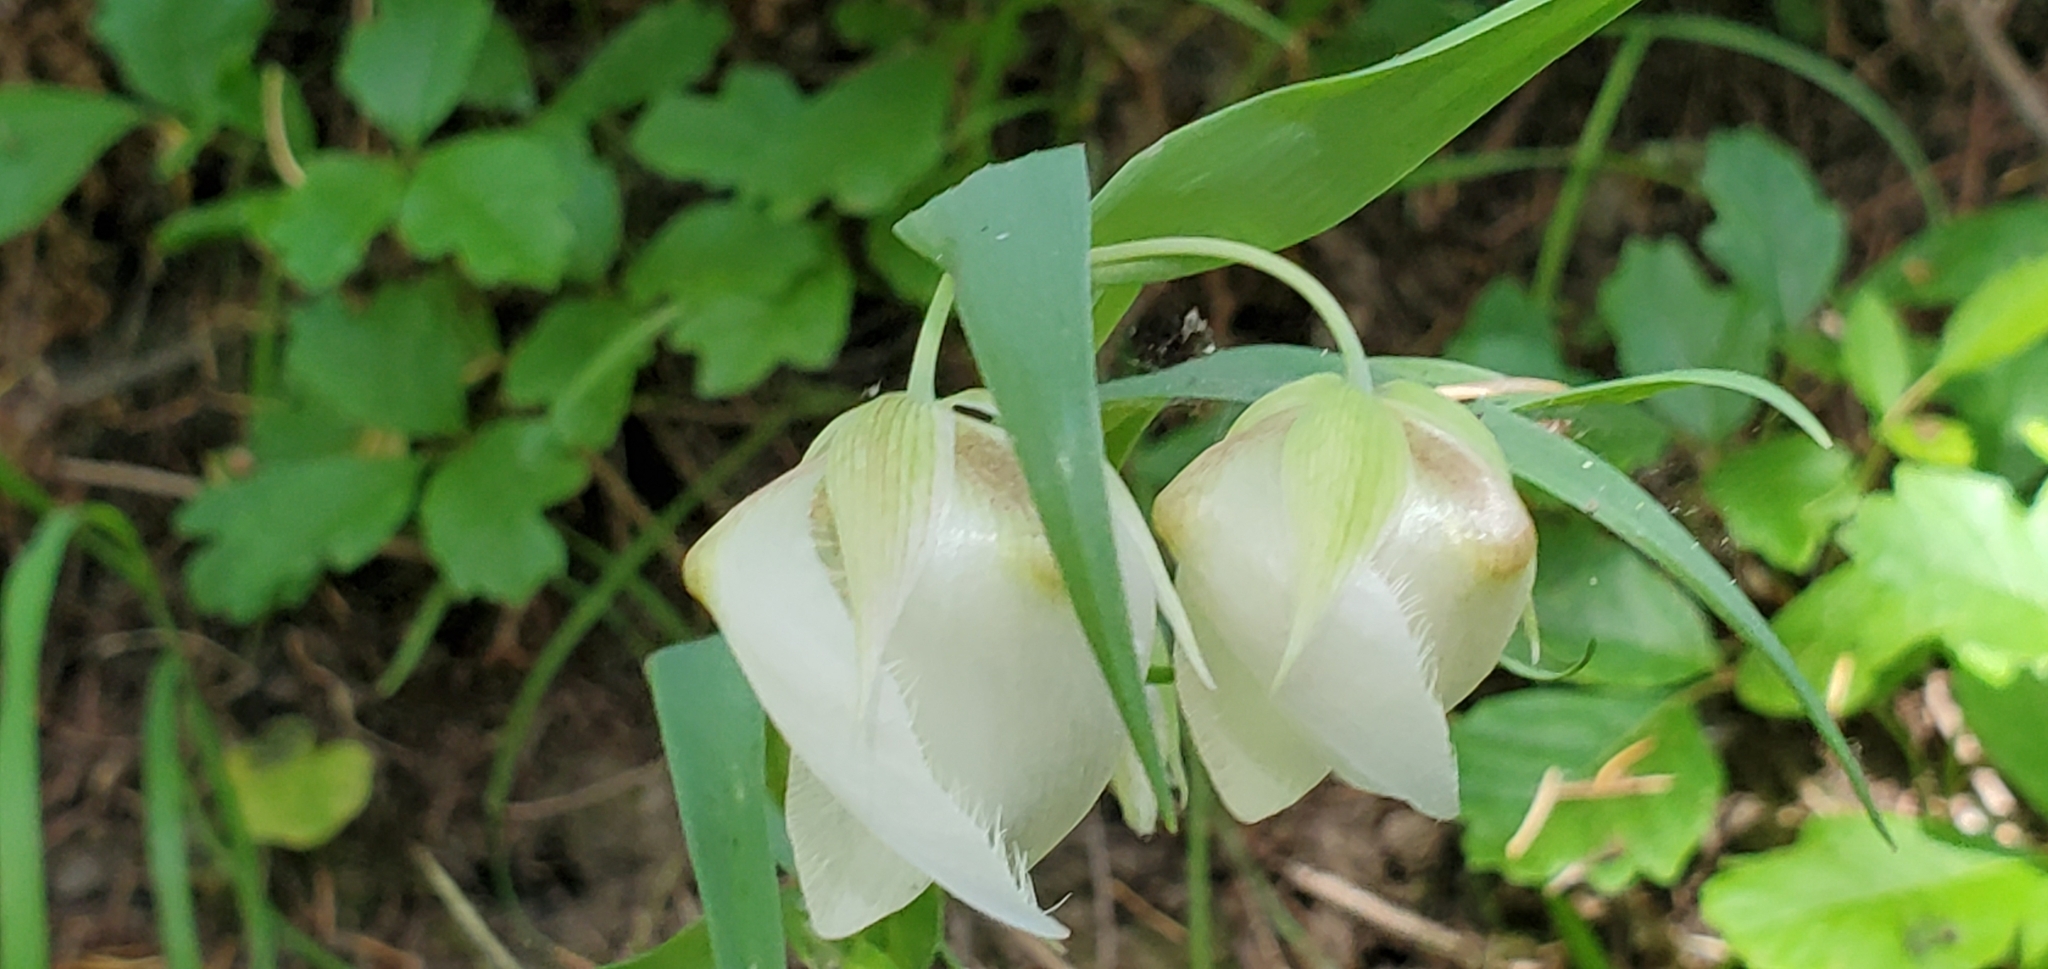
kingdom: Plantae
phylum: Tracheophyta
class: Liliopsida
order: Liliales
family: Liliaceae
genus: Calochortus
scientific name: Calochortus albus
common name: Fairy-lantern
